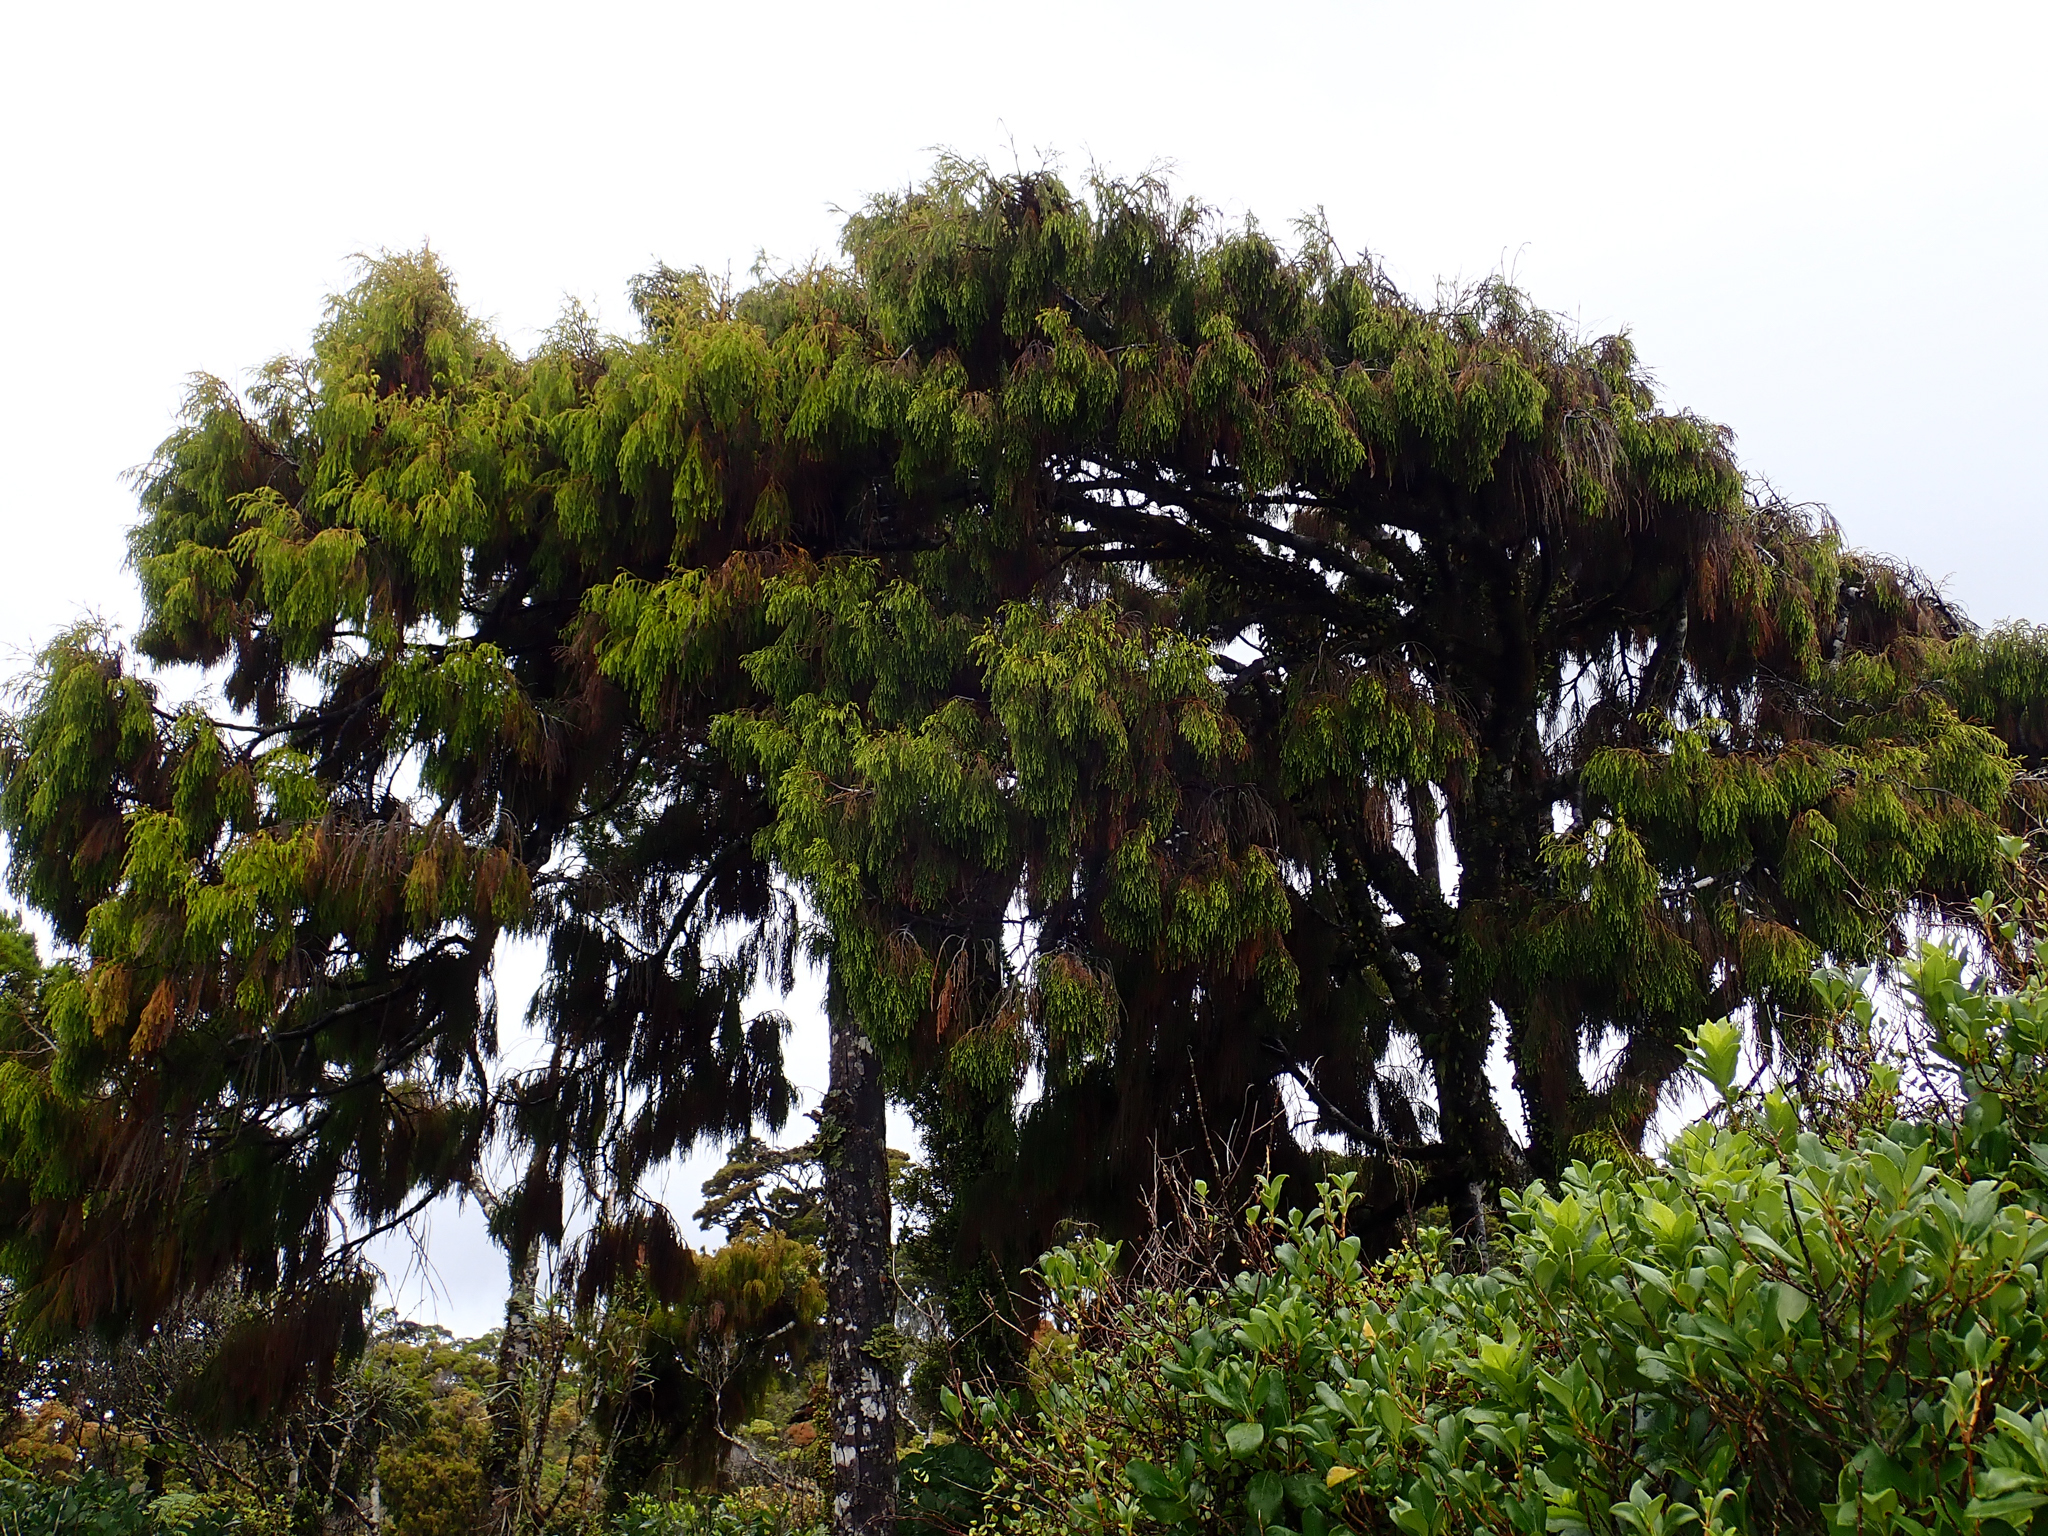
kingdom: Plantae
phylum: Tracheophyta
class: Pinopsida
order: Pinales
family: Podocarpaceae
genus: Dacrydium
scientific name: Dacrydium cupressinum
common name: Red pine
